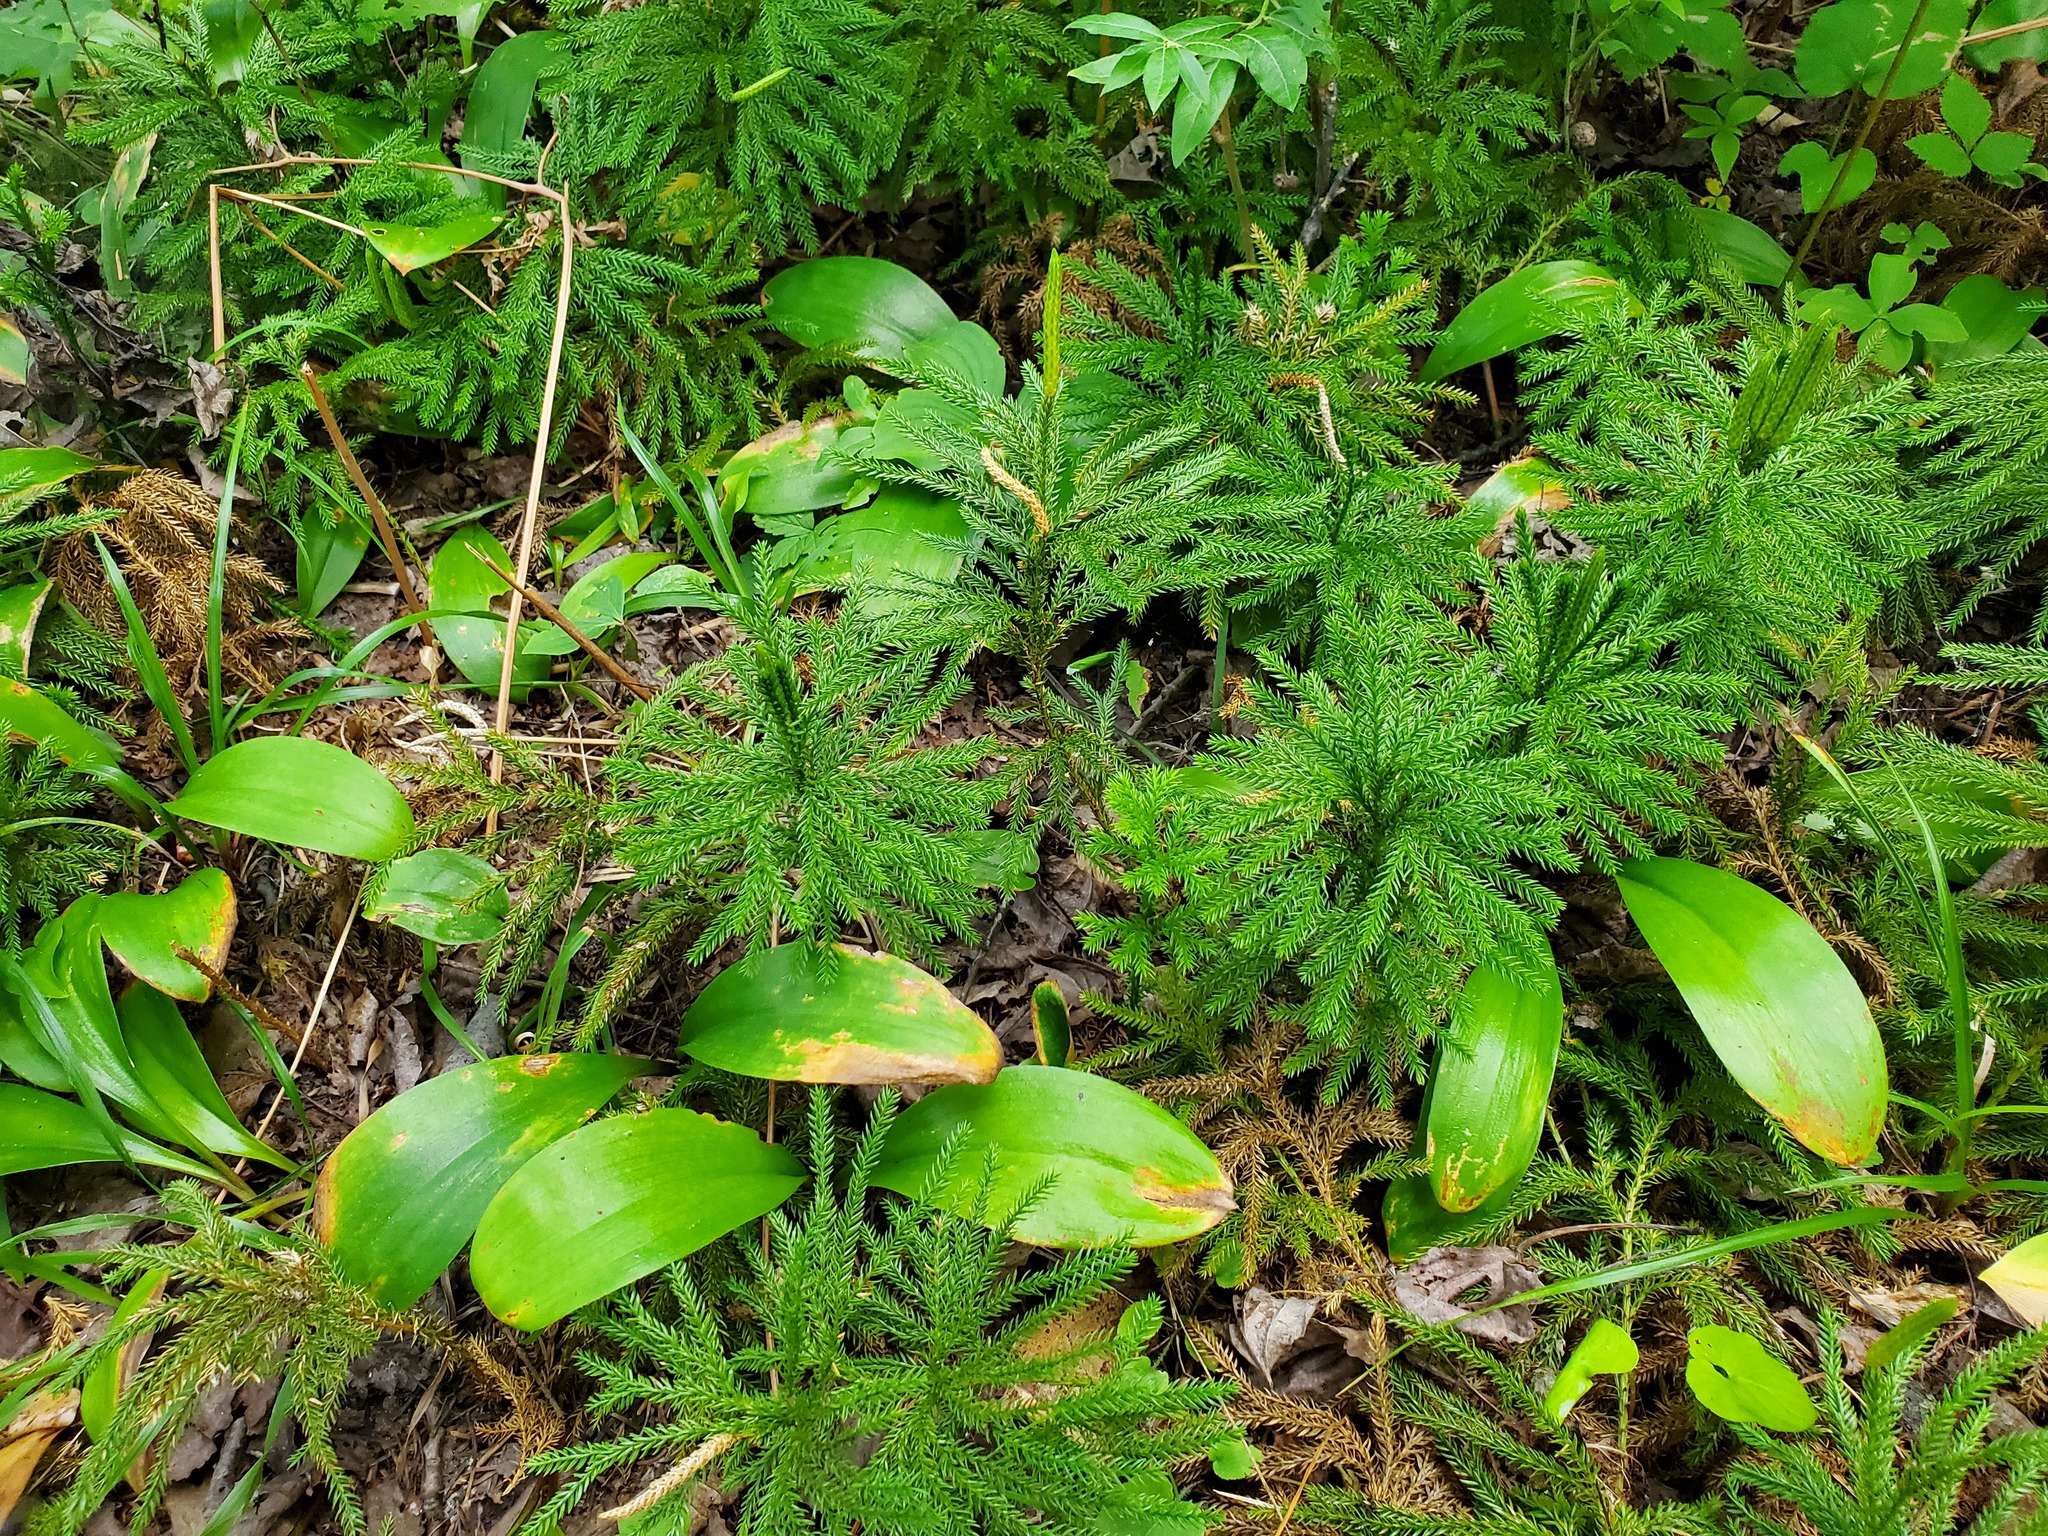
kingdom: Plantae
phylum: Tracheophyta
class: Lycopodiopsida
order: Lycopodiales
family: Lycopodiaceae
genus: Dendrolycopodium
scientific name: Dendrolycopodium dendroideum
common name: Northern tree-clubmoss
